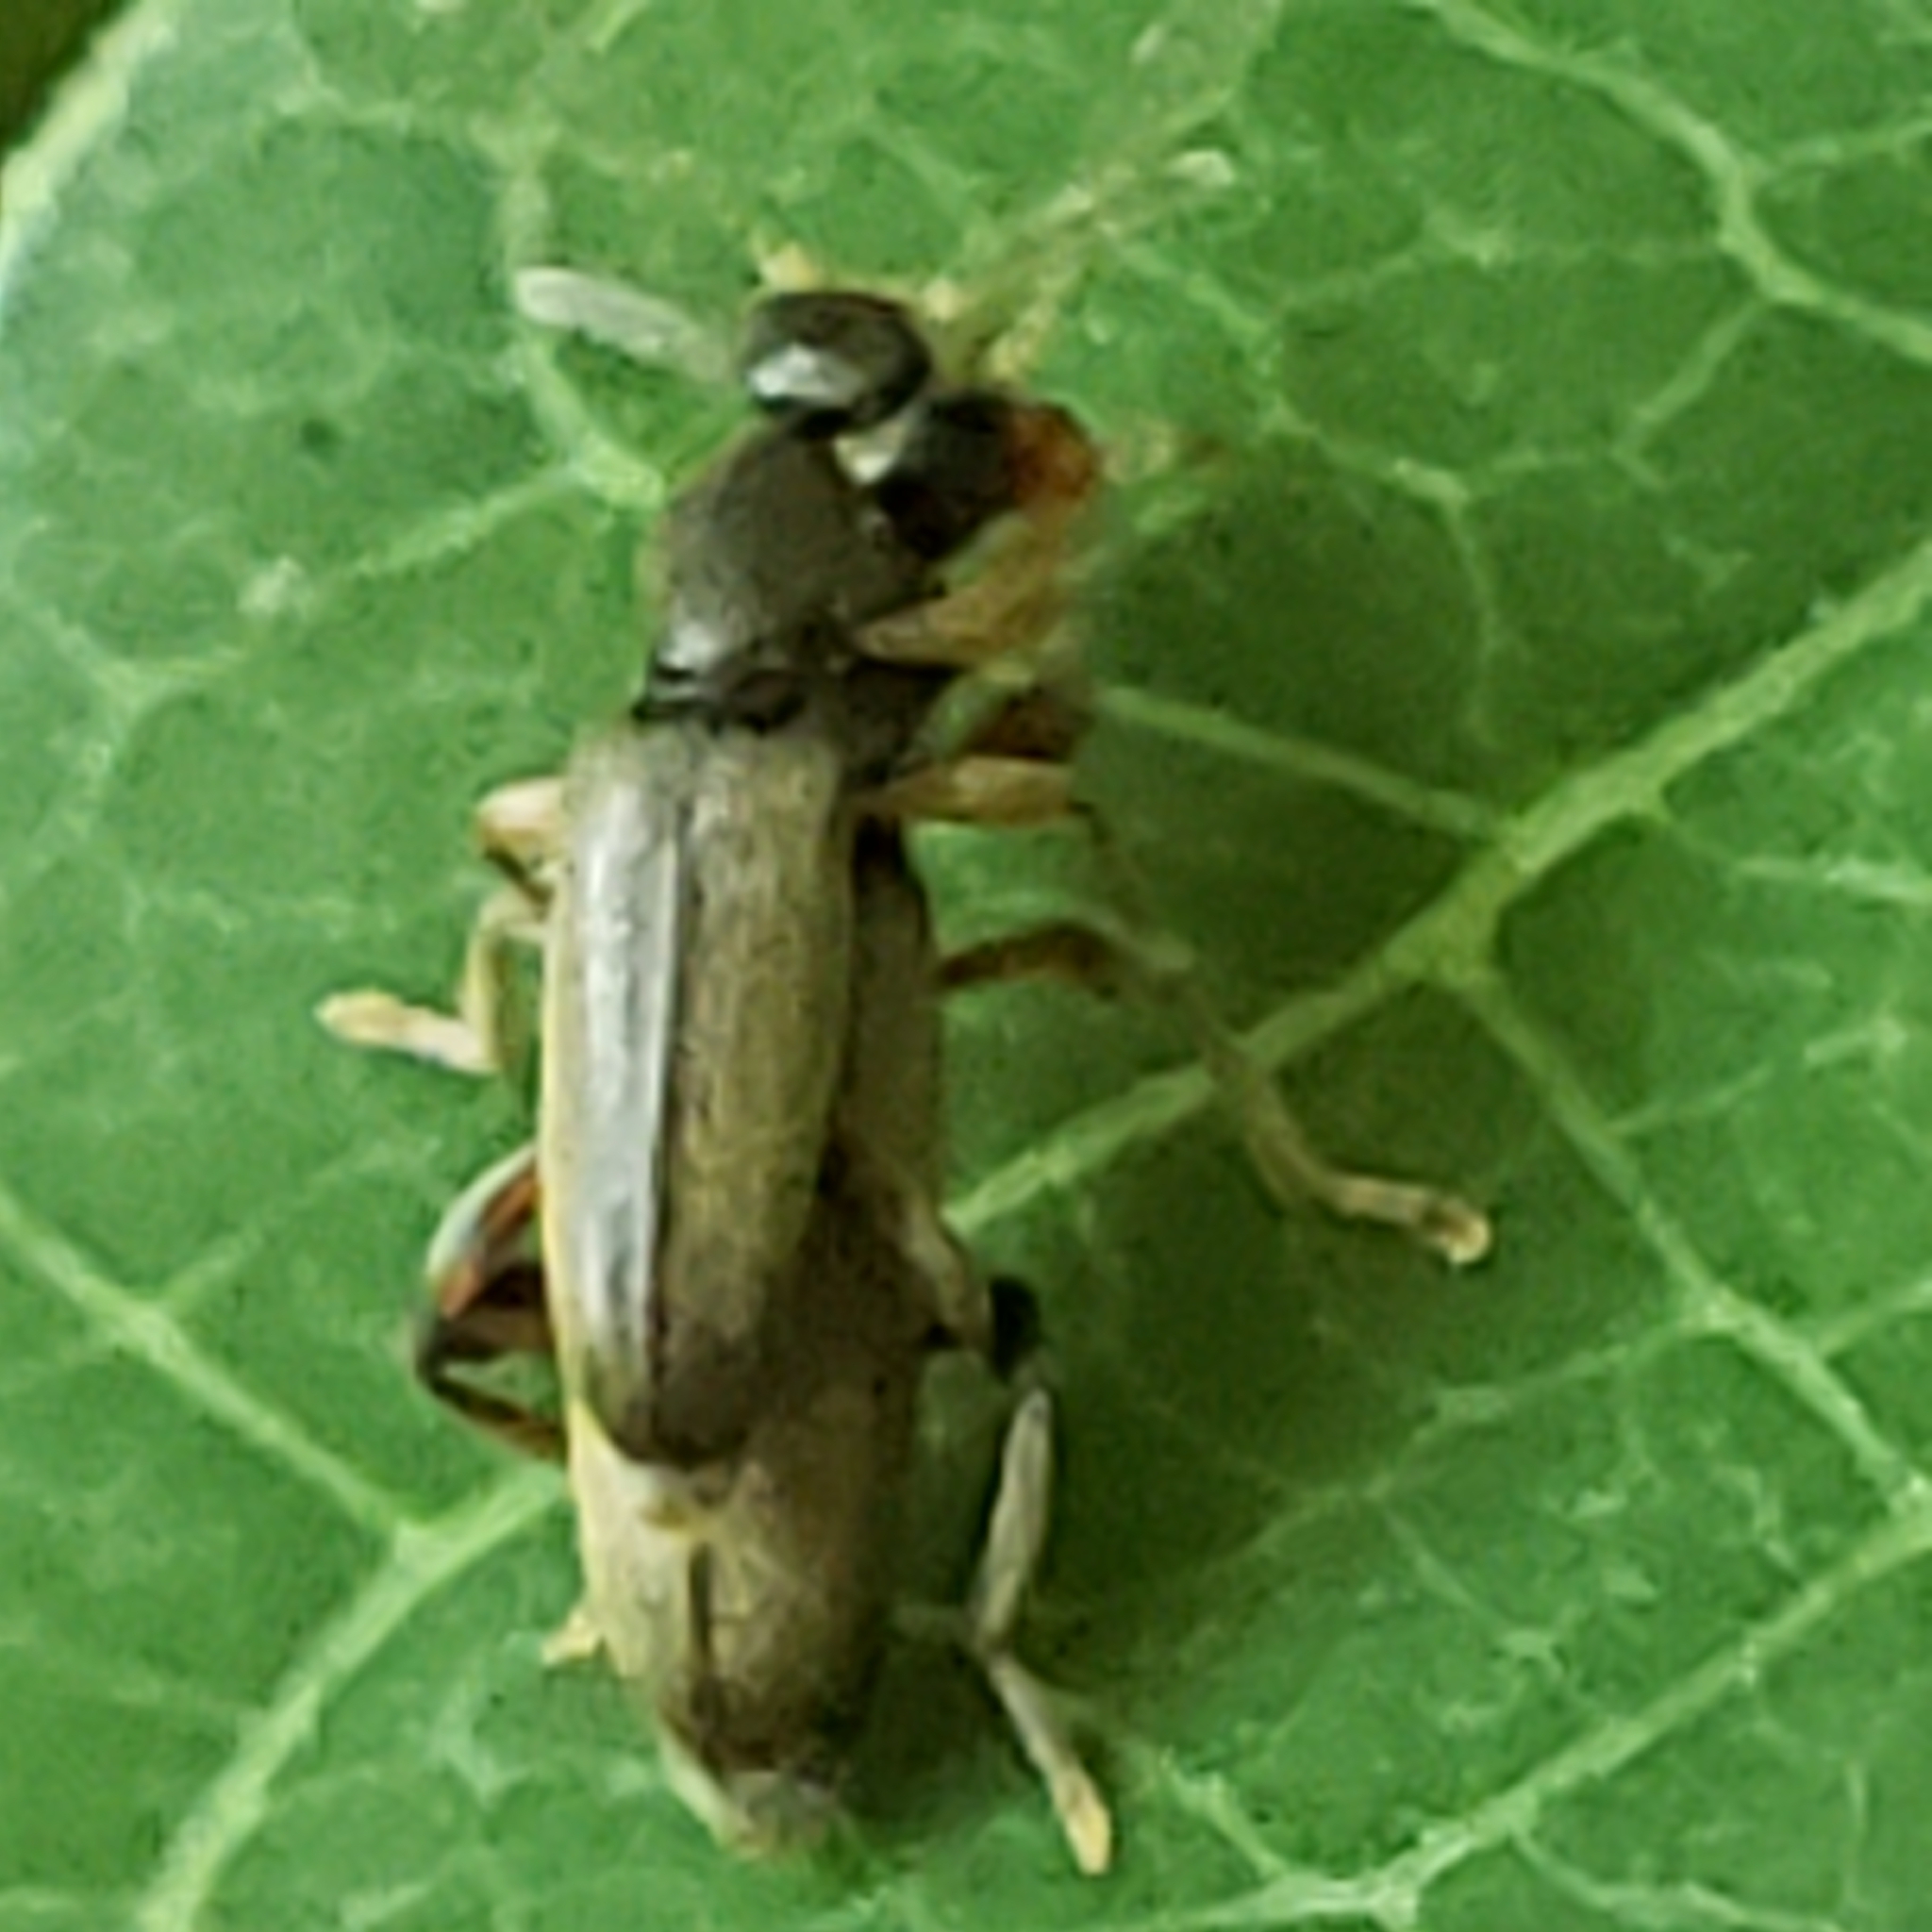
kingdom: Animalia
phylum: Arthropoda
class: Insecta
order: Coleoptera
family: Anthicidae
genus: Macratria
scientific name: Macratria murina
